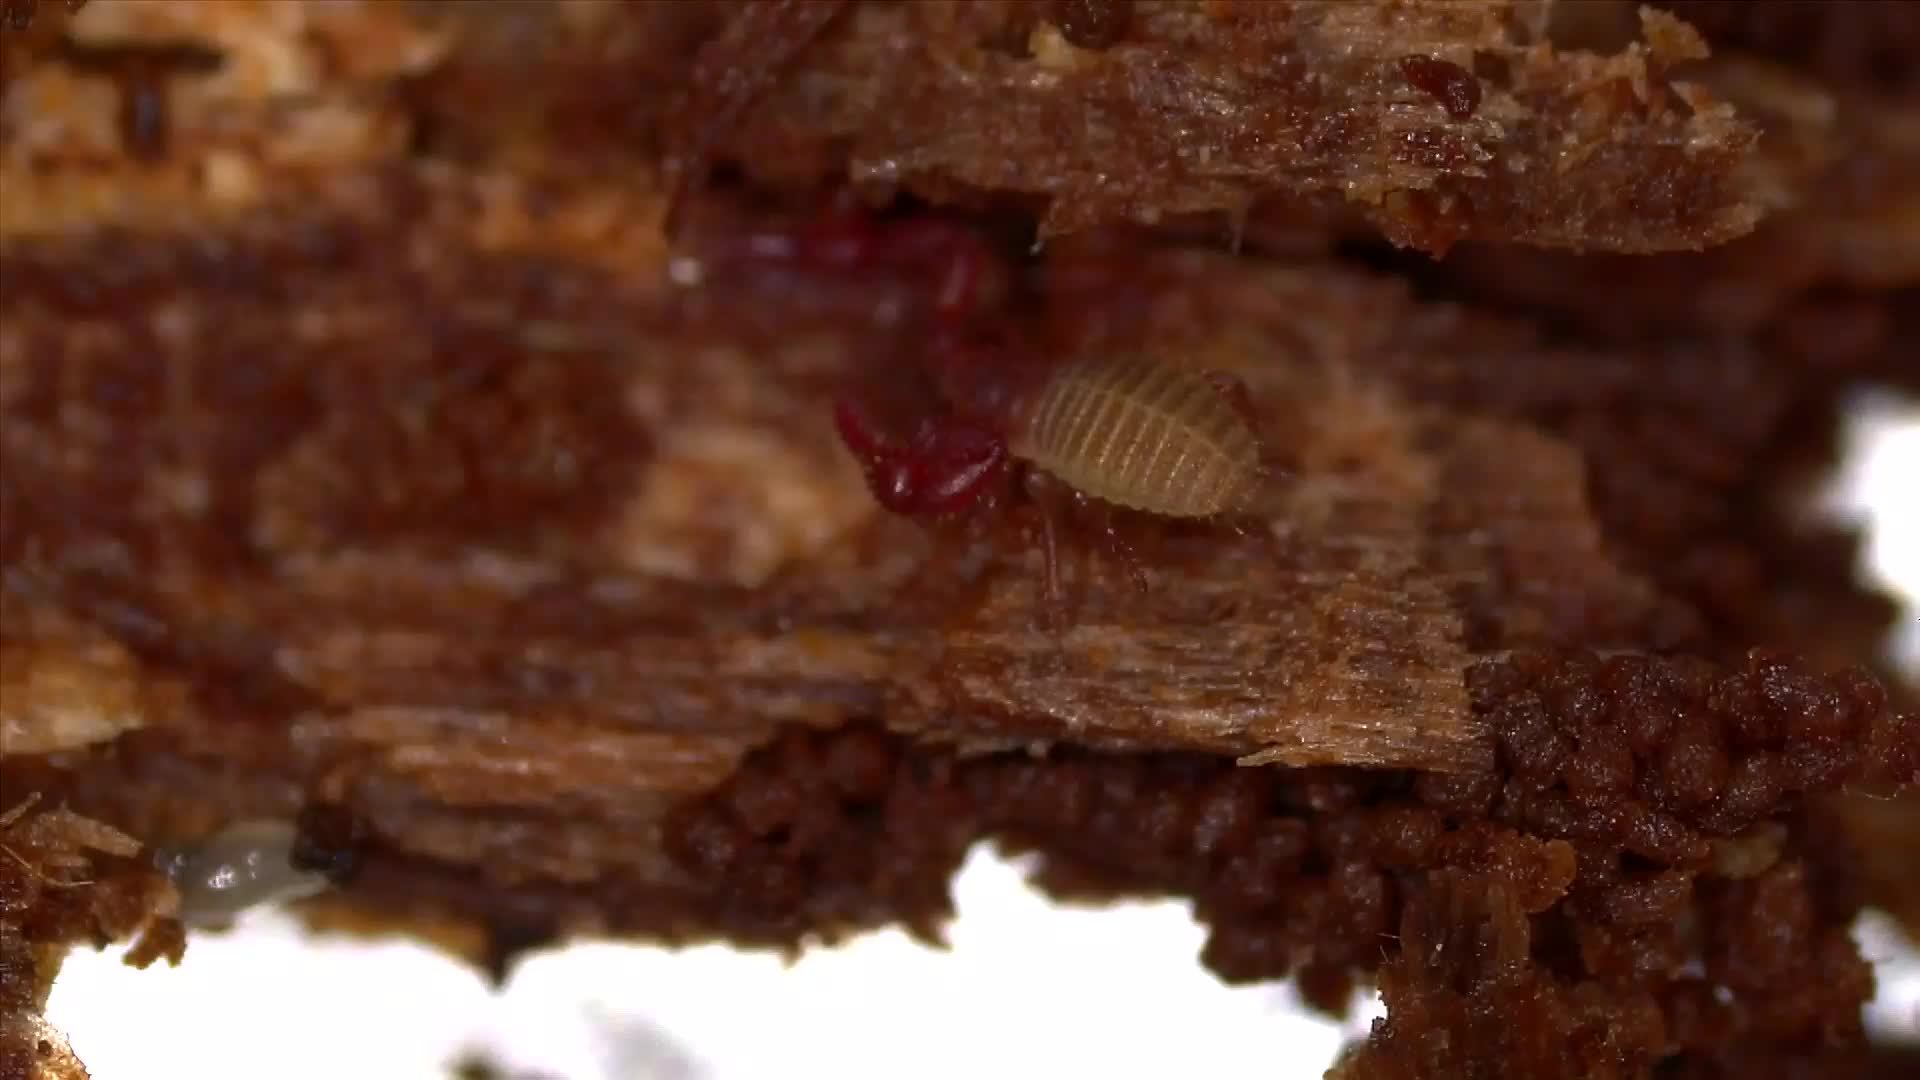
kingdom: Animalia
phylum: Arthropoda
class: Arachnida
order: Pseudoscorpiones
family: Chernetidae
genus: Pselaphochernes
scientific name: Pselaphochernes scorpioides
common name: Compost chernes
